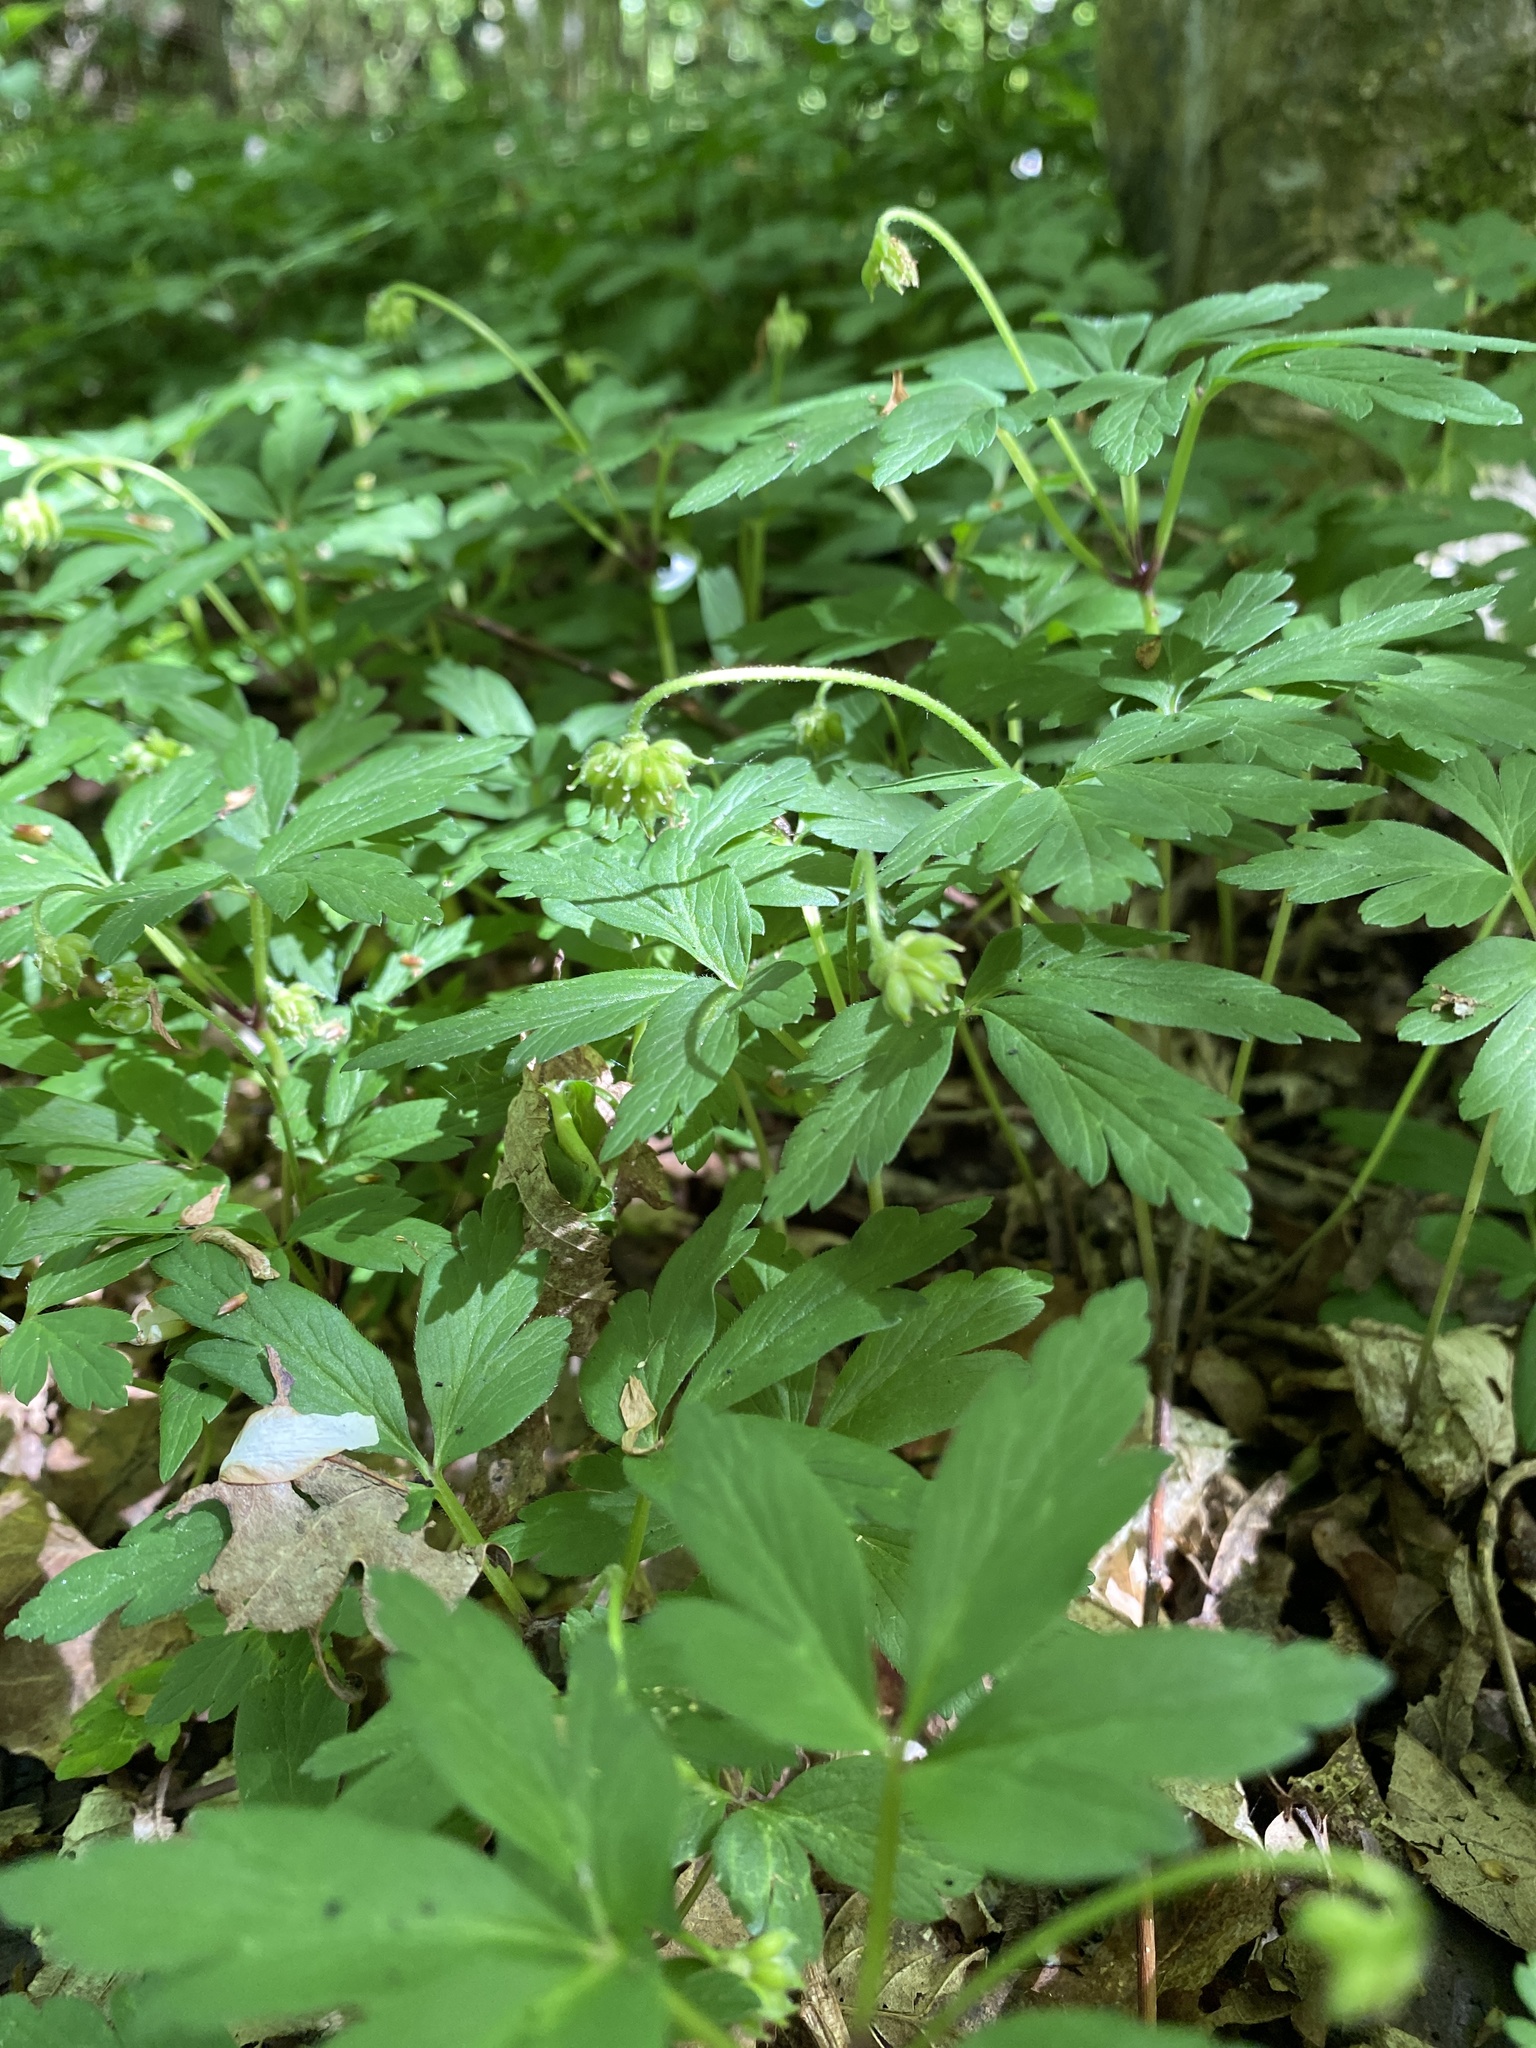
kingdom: Plantae
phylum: Tracheophyta
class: Magnoliopsida
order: Ranunculales
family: Ranunculaceae
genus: Anemone
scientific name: Anemone nemorosa
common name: Wood anemone
